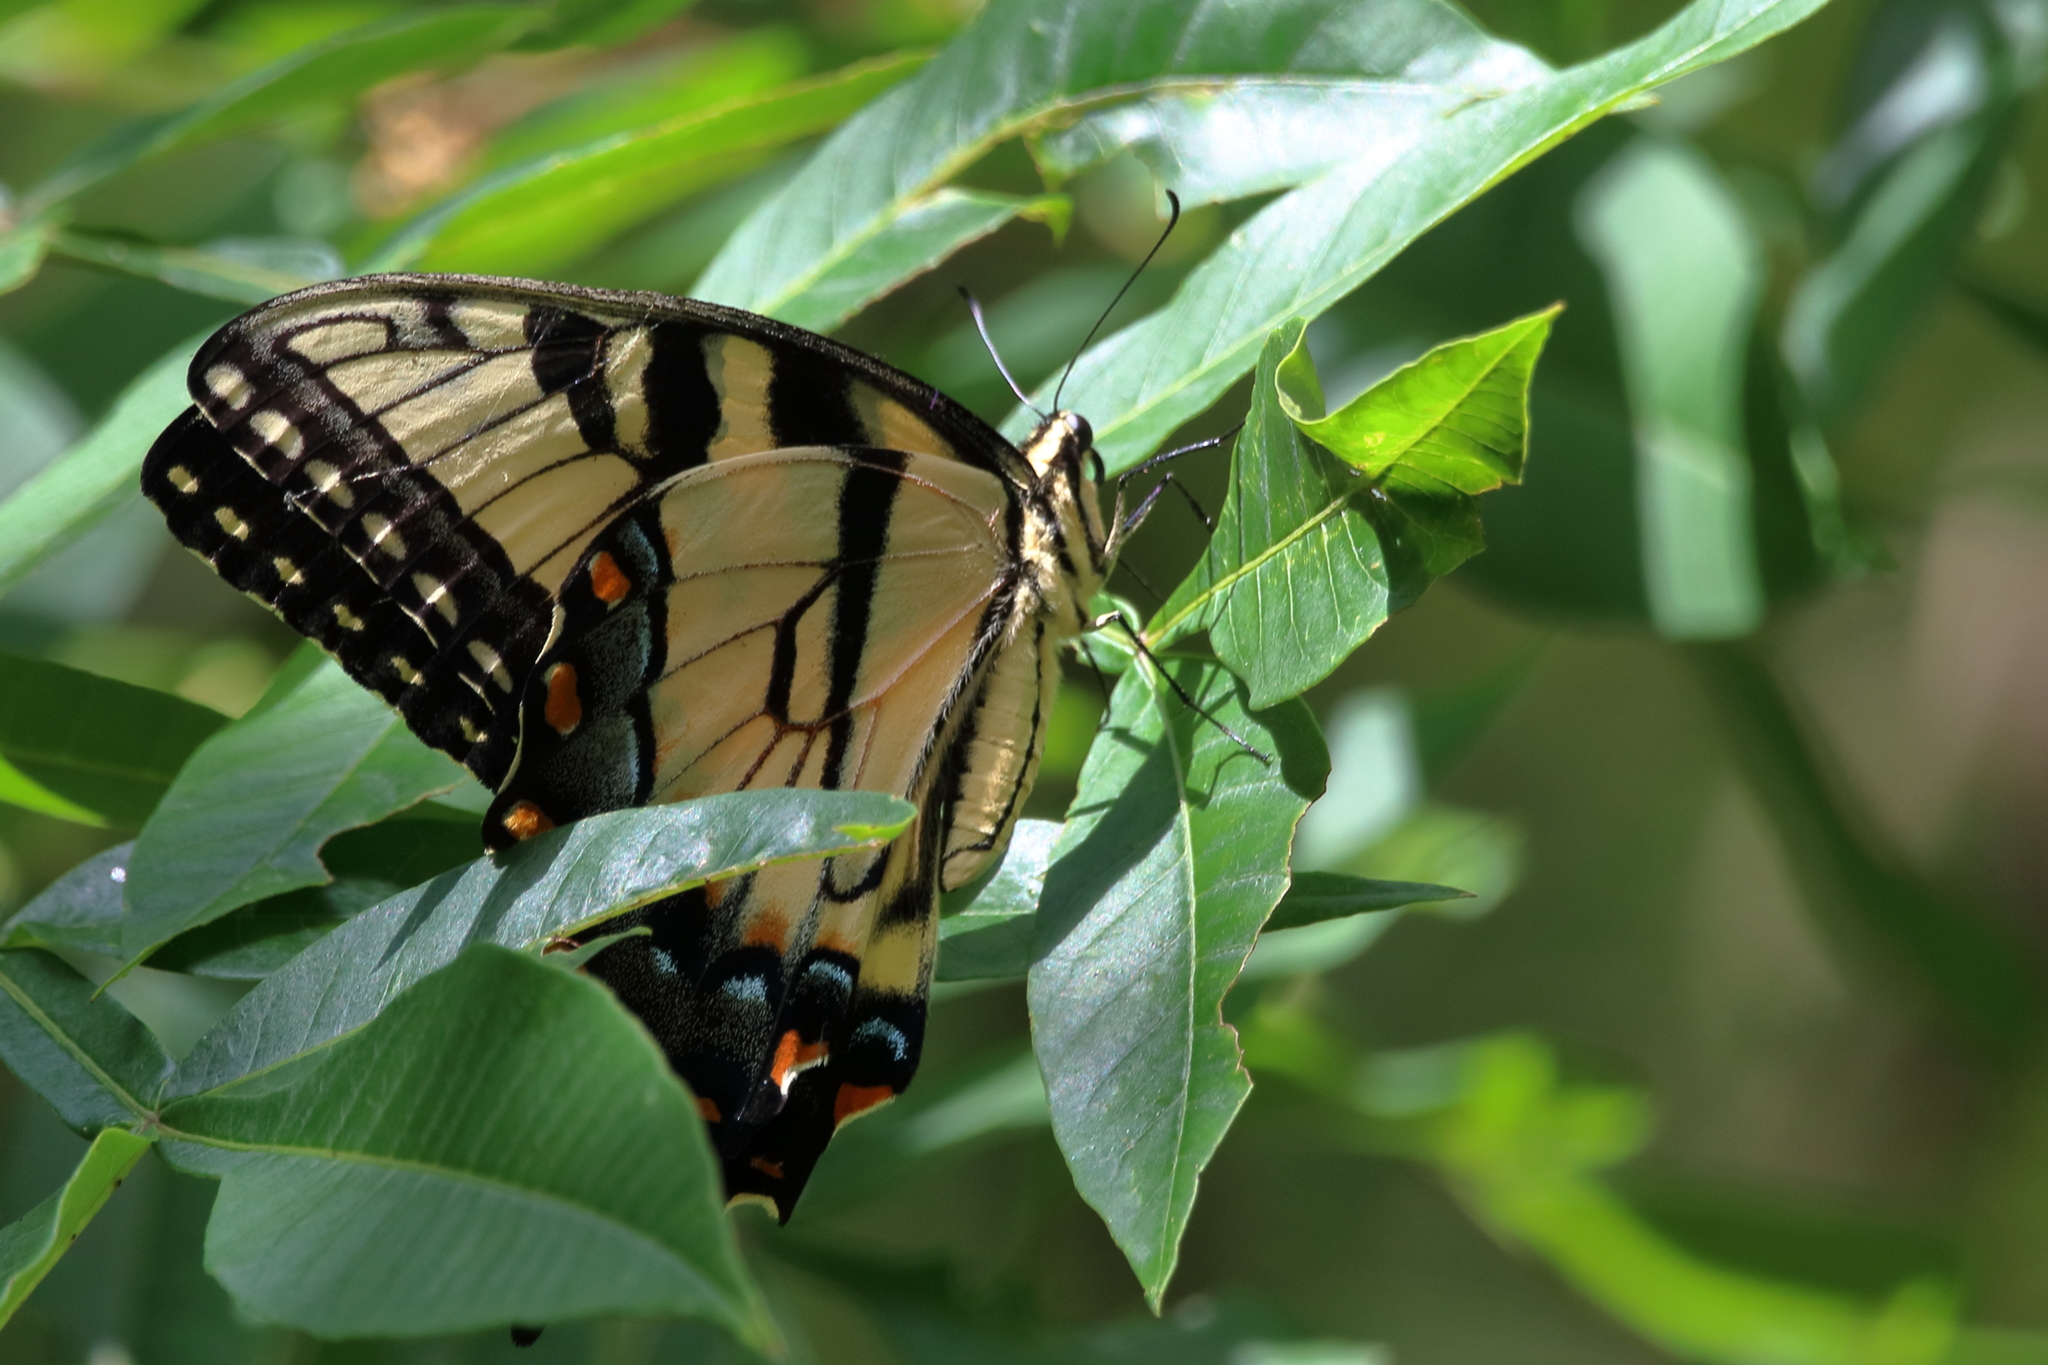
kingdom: Animalia
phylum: Arthropoda
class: Insecta
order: Lepidoptera
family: Papilionidae
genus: Papilio
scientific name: Papilio glaucus
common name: Tiger swallowtail
